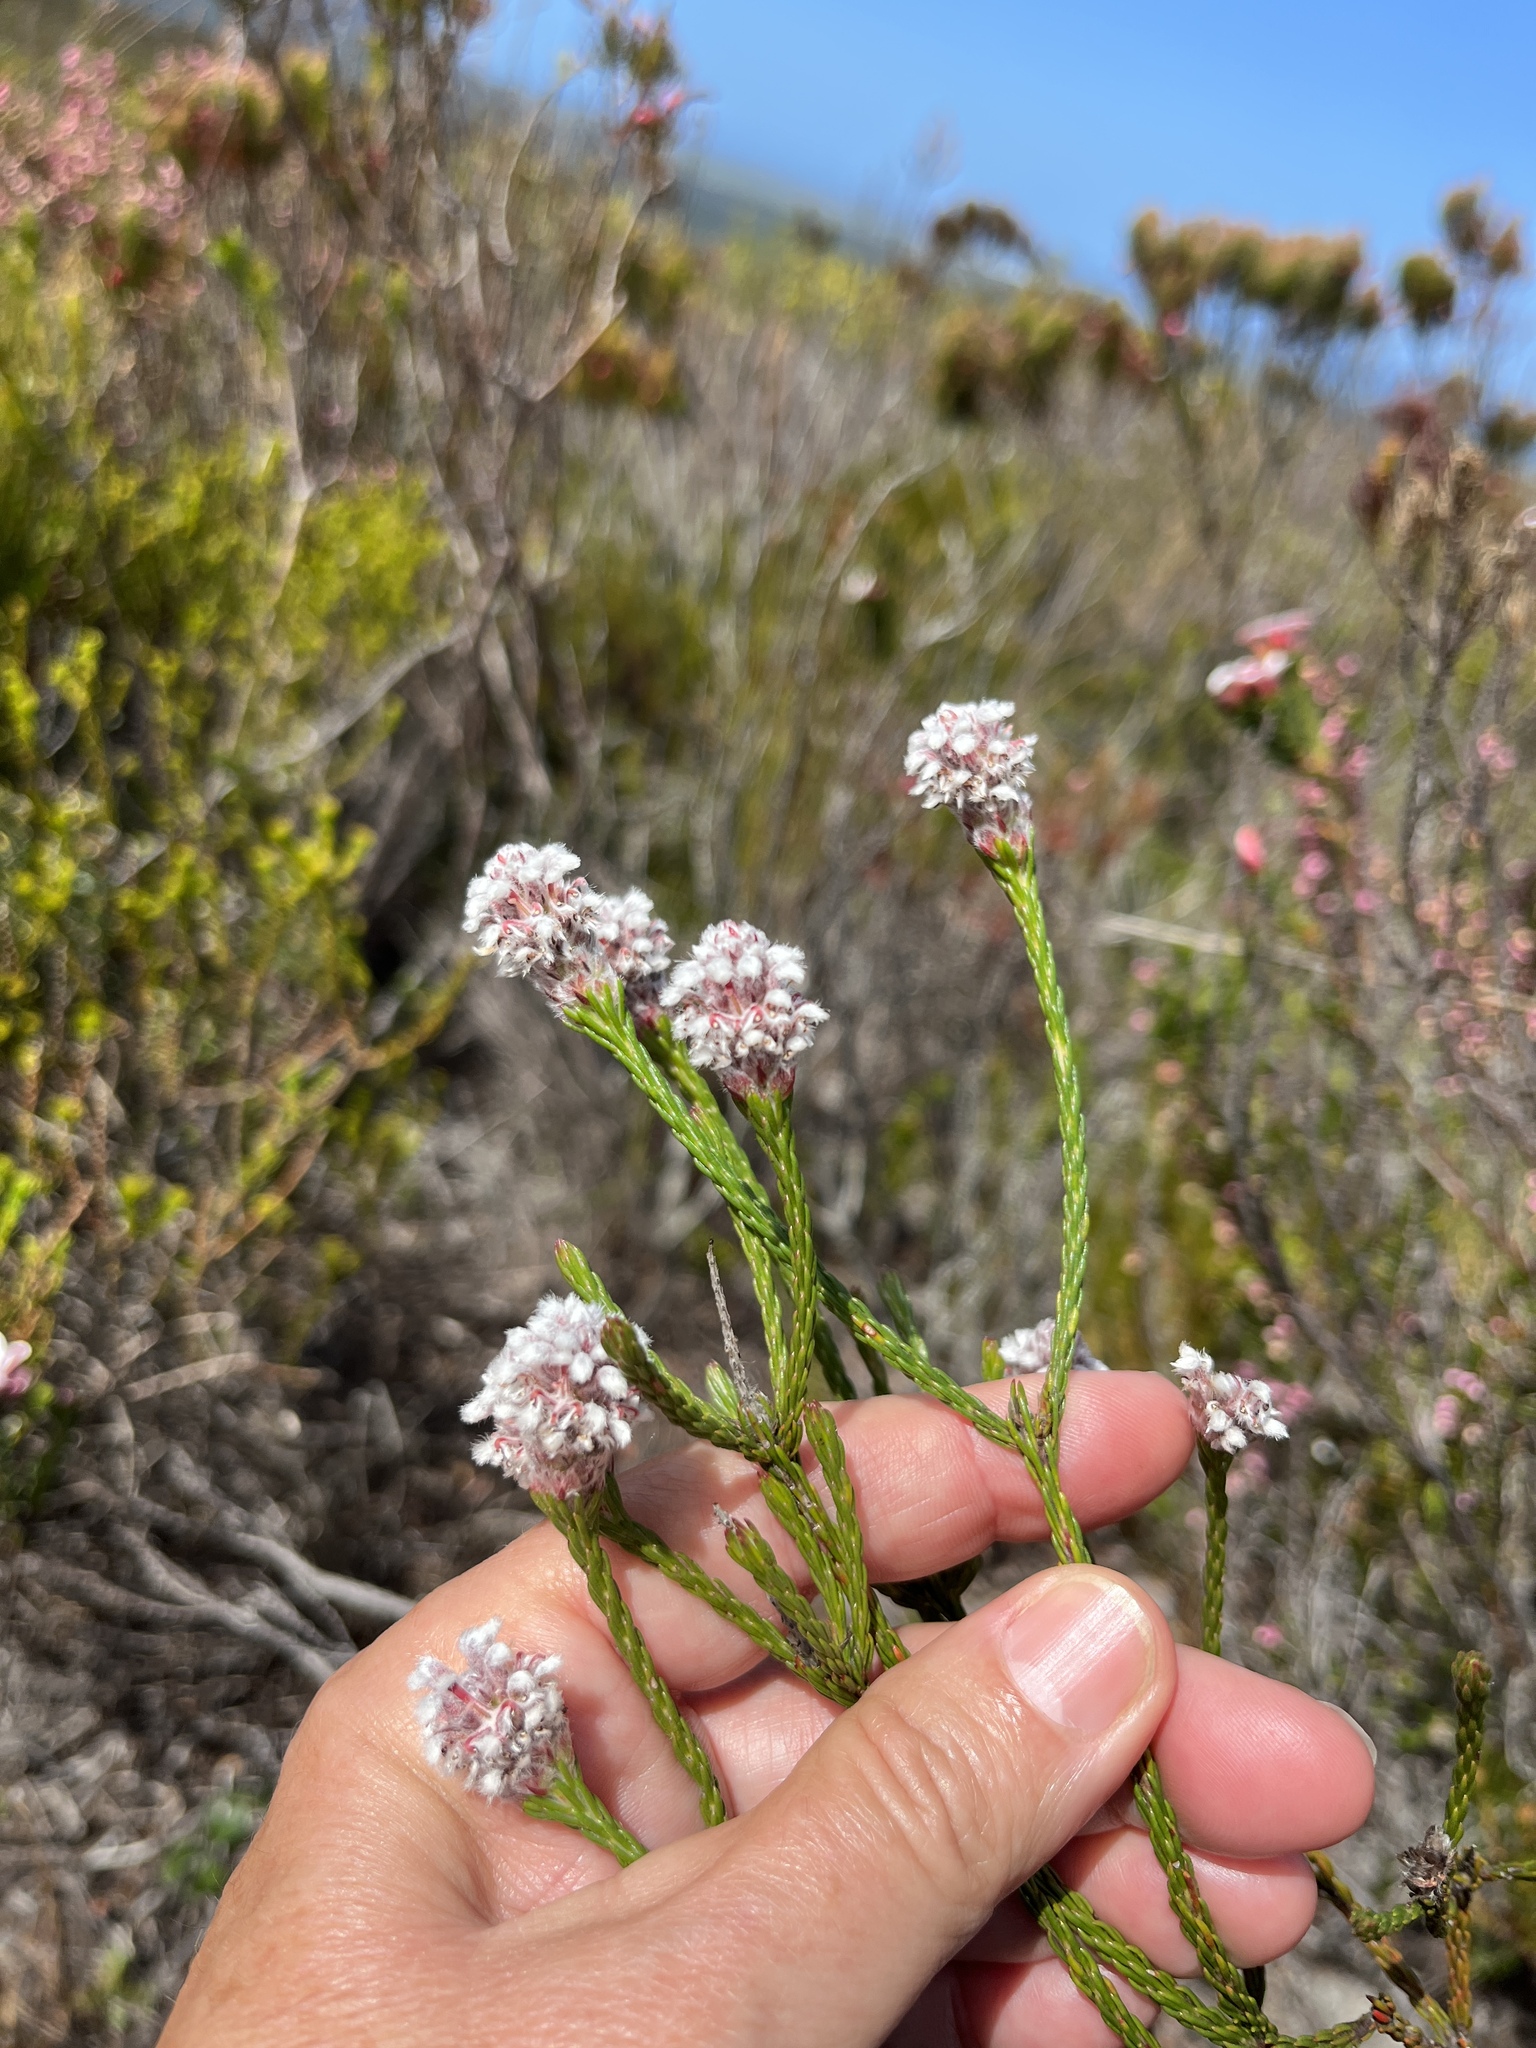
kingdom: Plantae
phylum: Tracheophyta
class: Magnoliopsida
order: Proteales
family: Proteaceae
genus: Spatalla
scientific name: Spatalla ericoides
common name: Erica-leaf spoon
